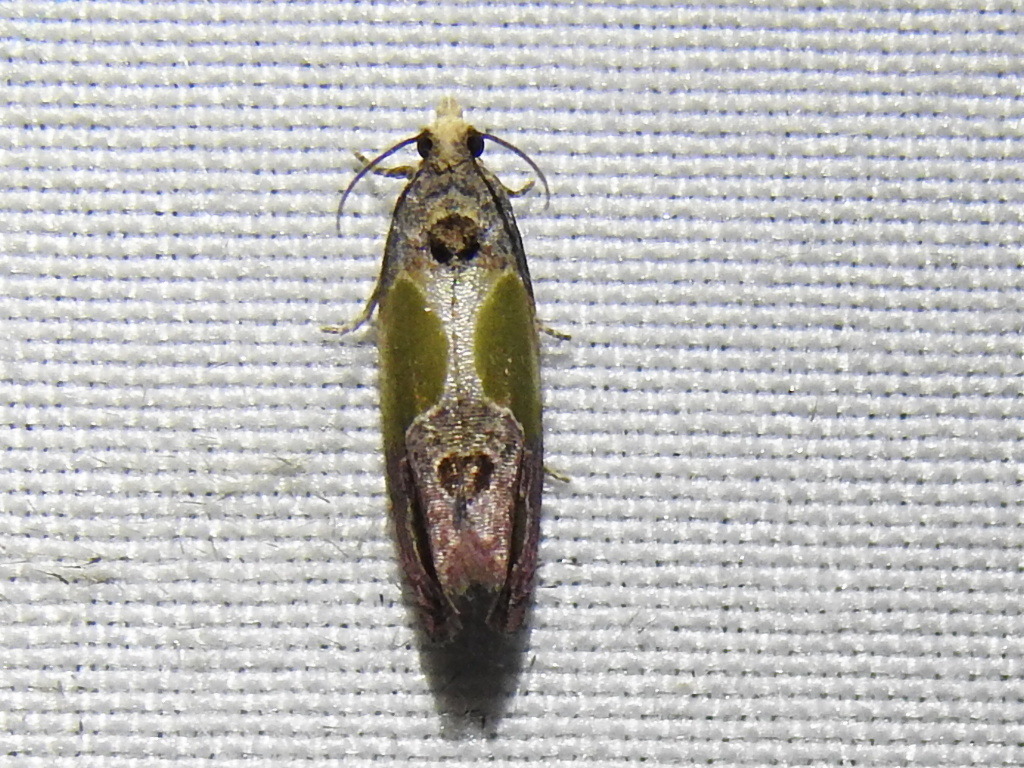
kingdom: Animalia
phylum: Arthropoda
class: Insecta
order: Lepidoptera
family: Tortricidae
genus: Eumarozia
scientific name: Eumarozia malachitana
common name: Sculptured moth
